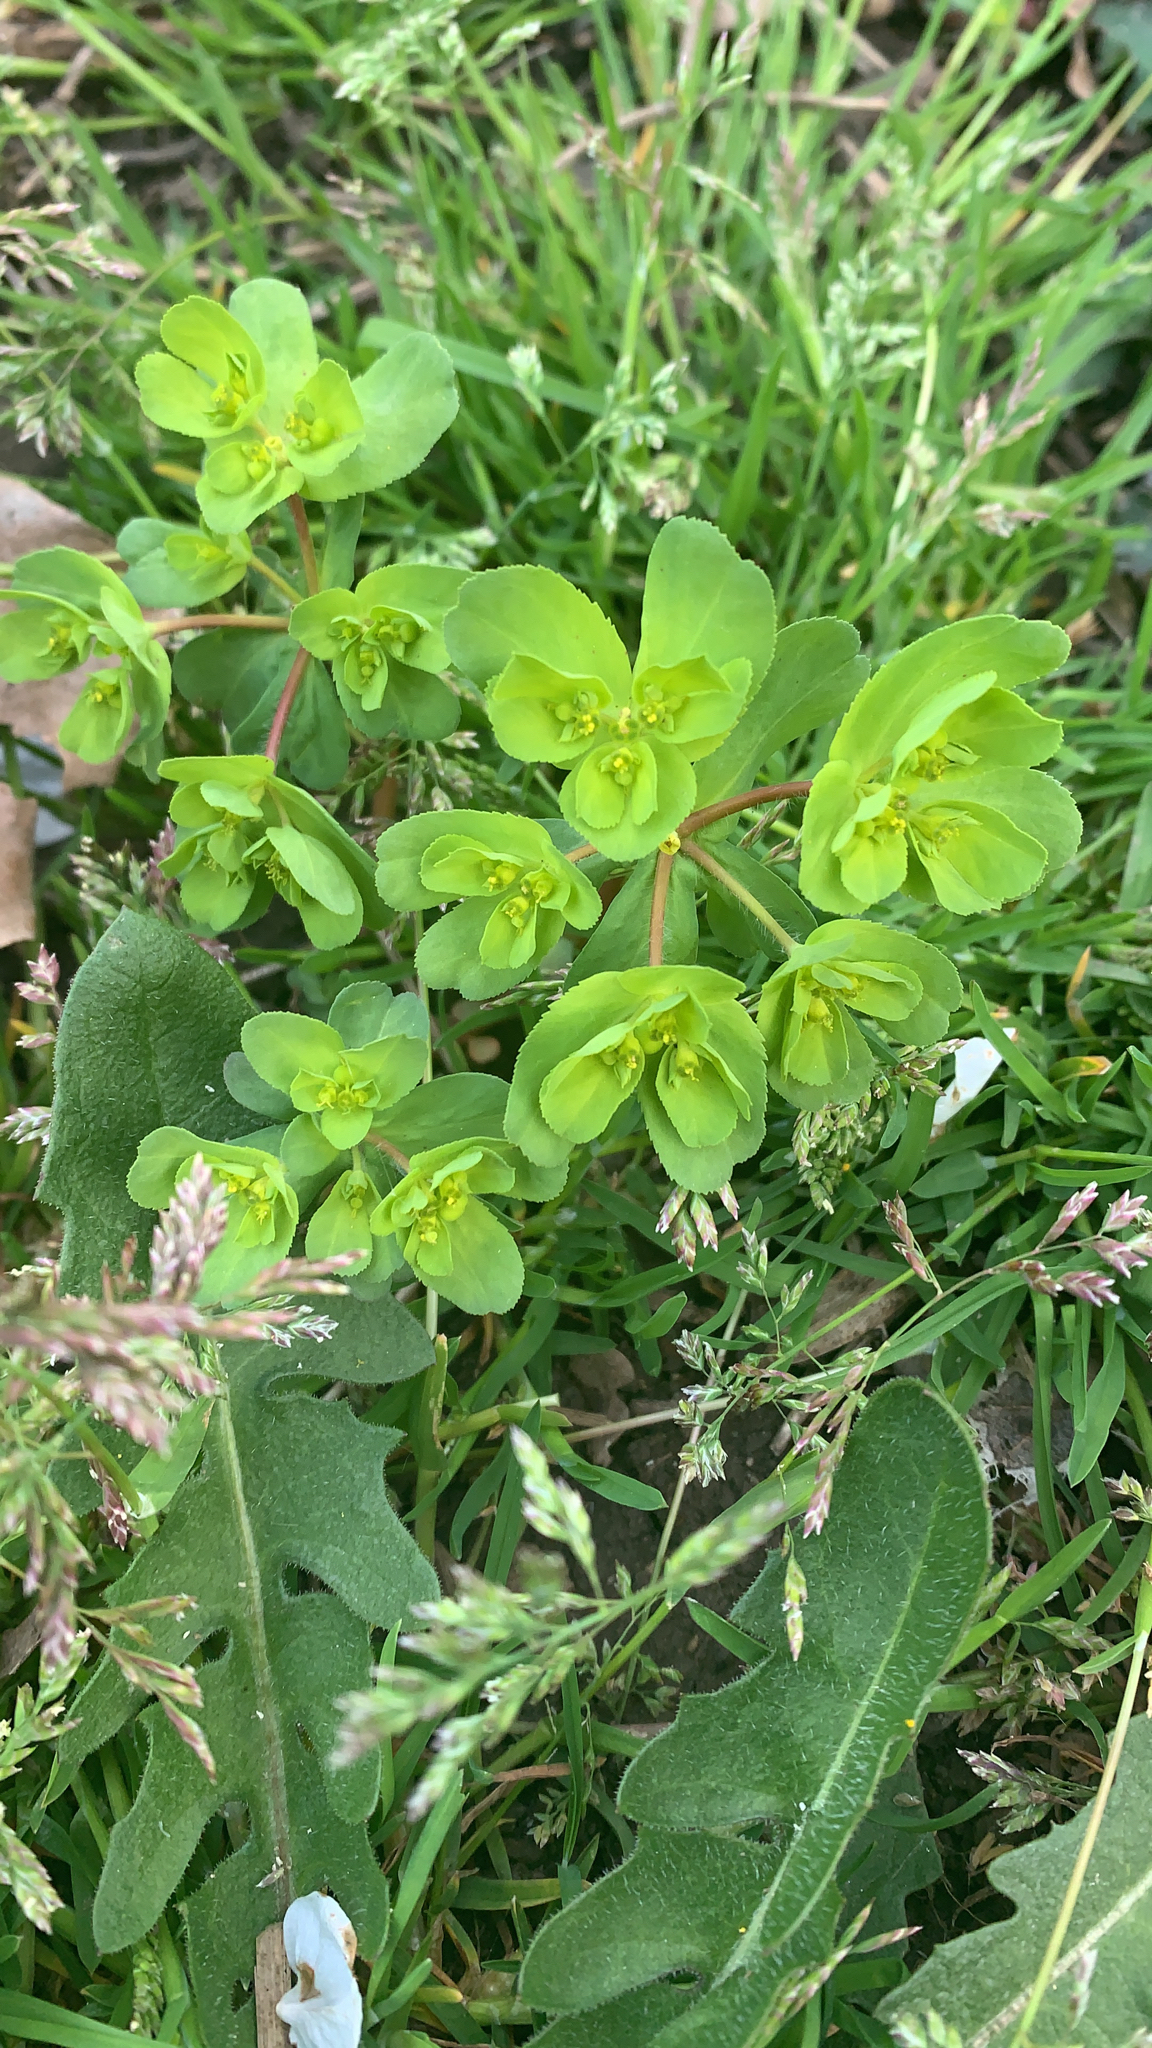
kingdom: Plantae
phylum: Tracheophyta
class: Magnoliopsida
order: Malpighiales
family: Euphorbiaceae
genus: Euphorbia
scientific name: Euphorbia helioscopia
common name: Sun spurge
